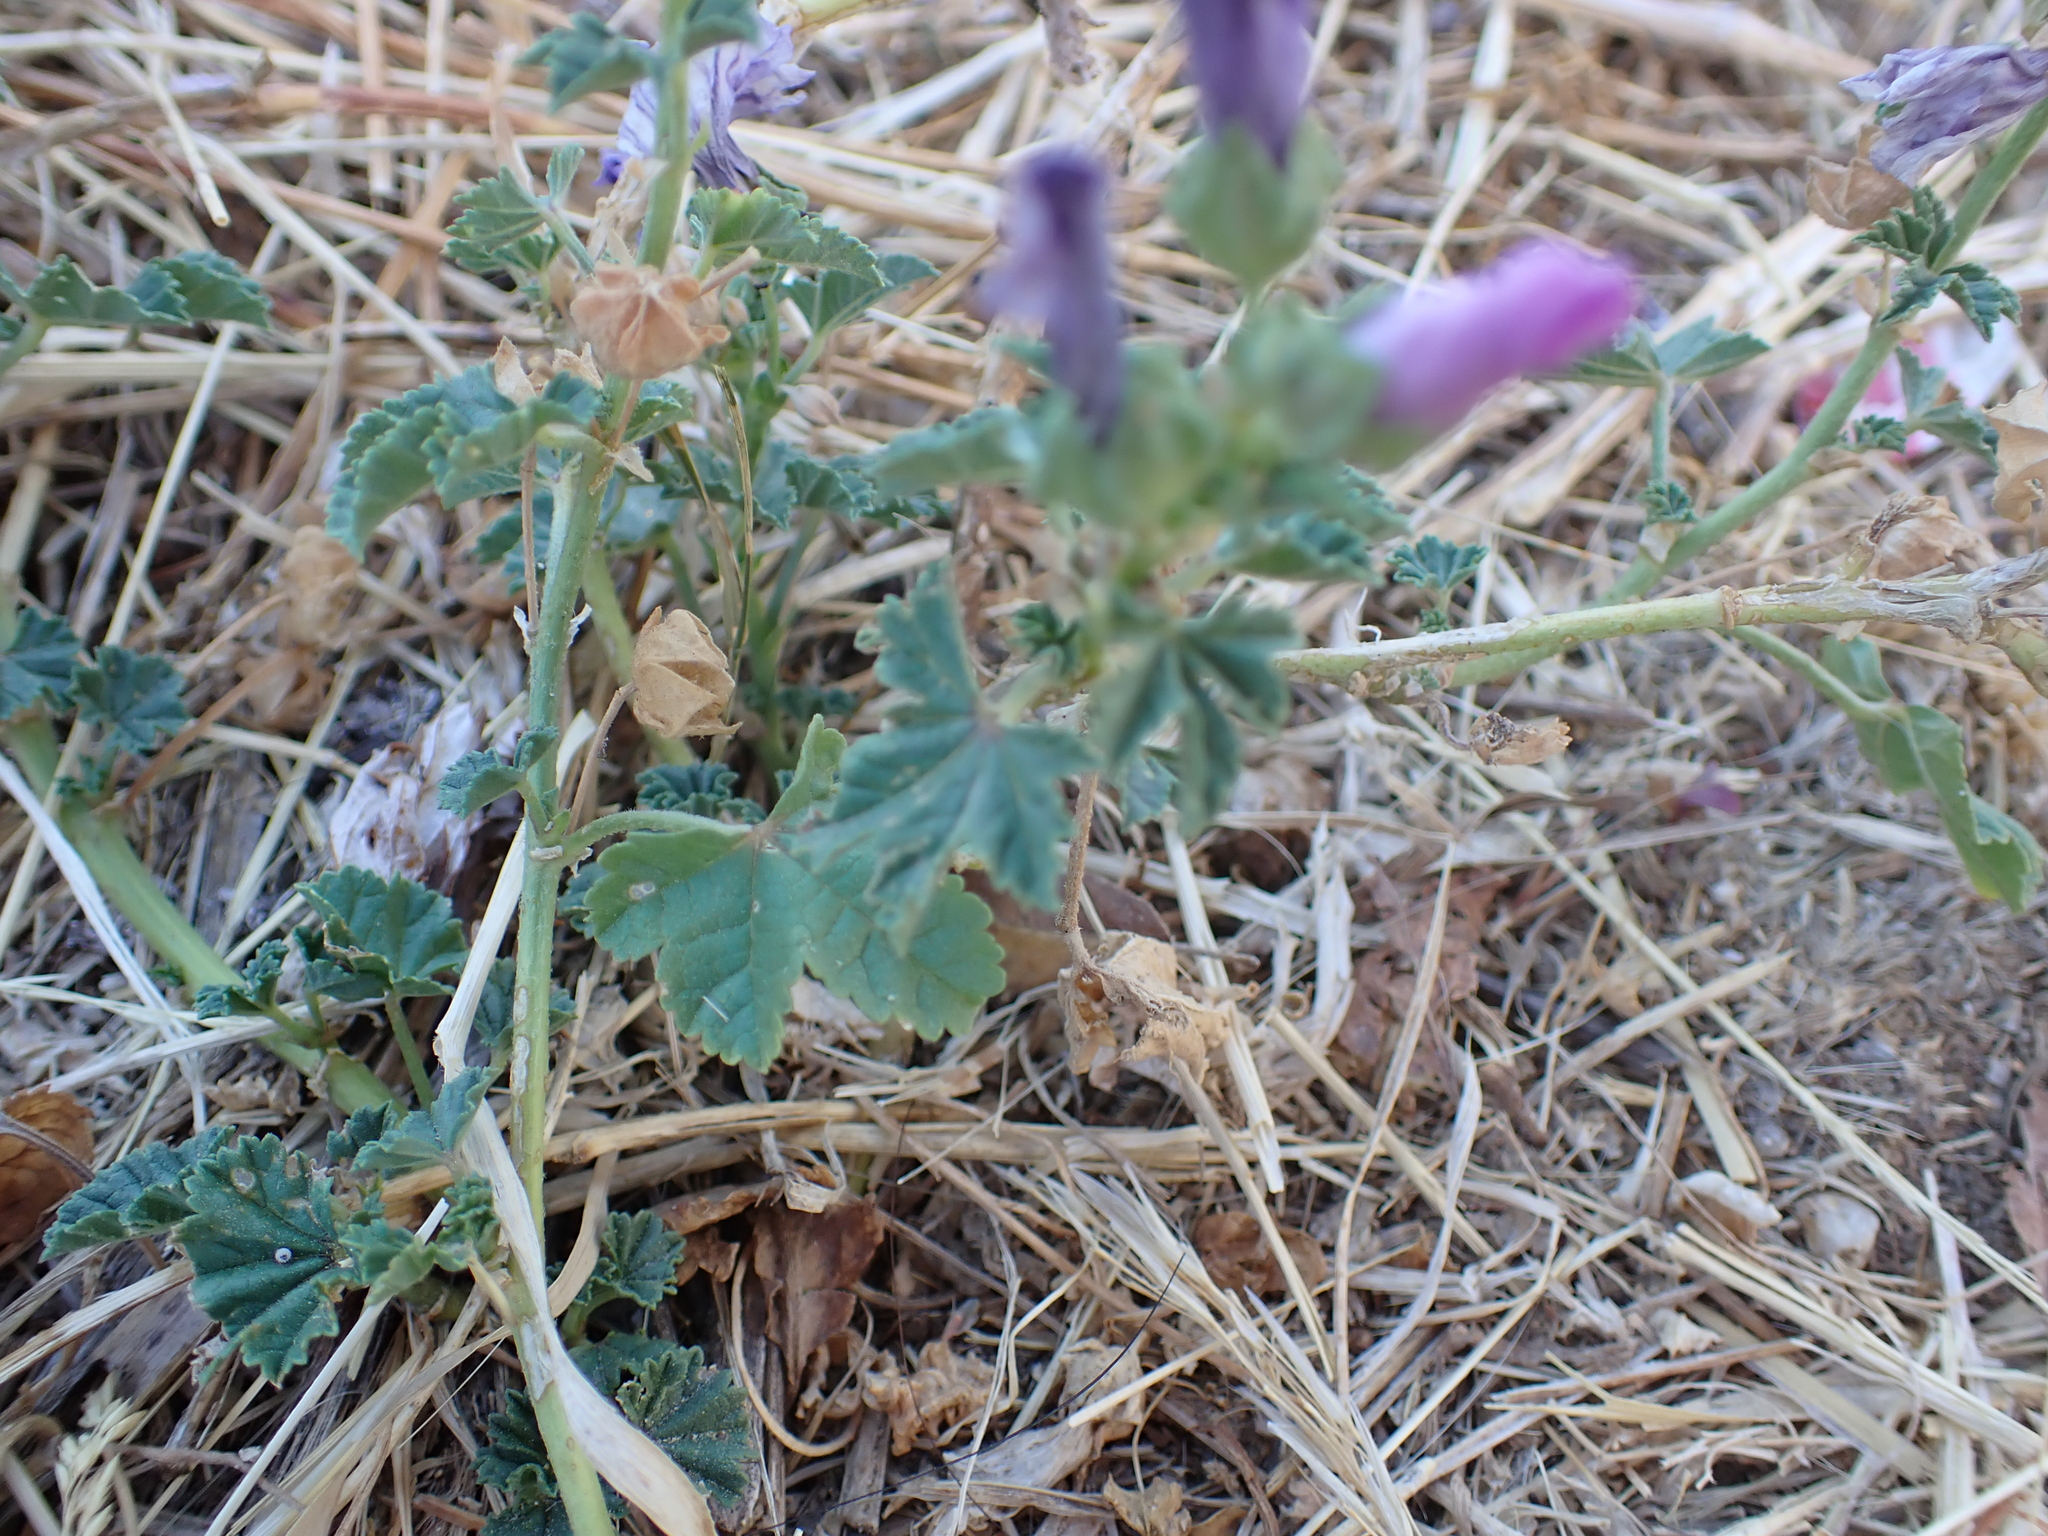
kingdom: Plantae
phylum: Tracheophyta
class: Magnoliopsida
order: Malvales
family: Malvaceae
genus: Malva
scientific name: Malva sylvestris
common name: Common mallow
